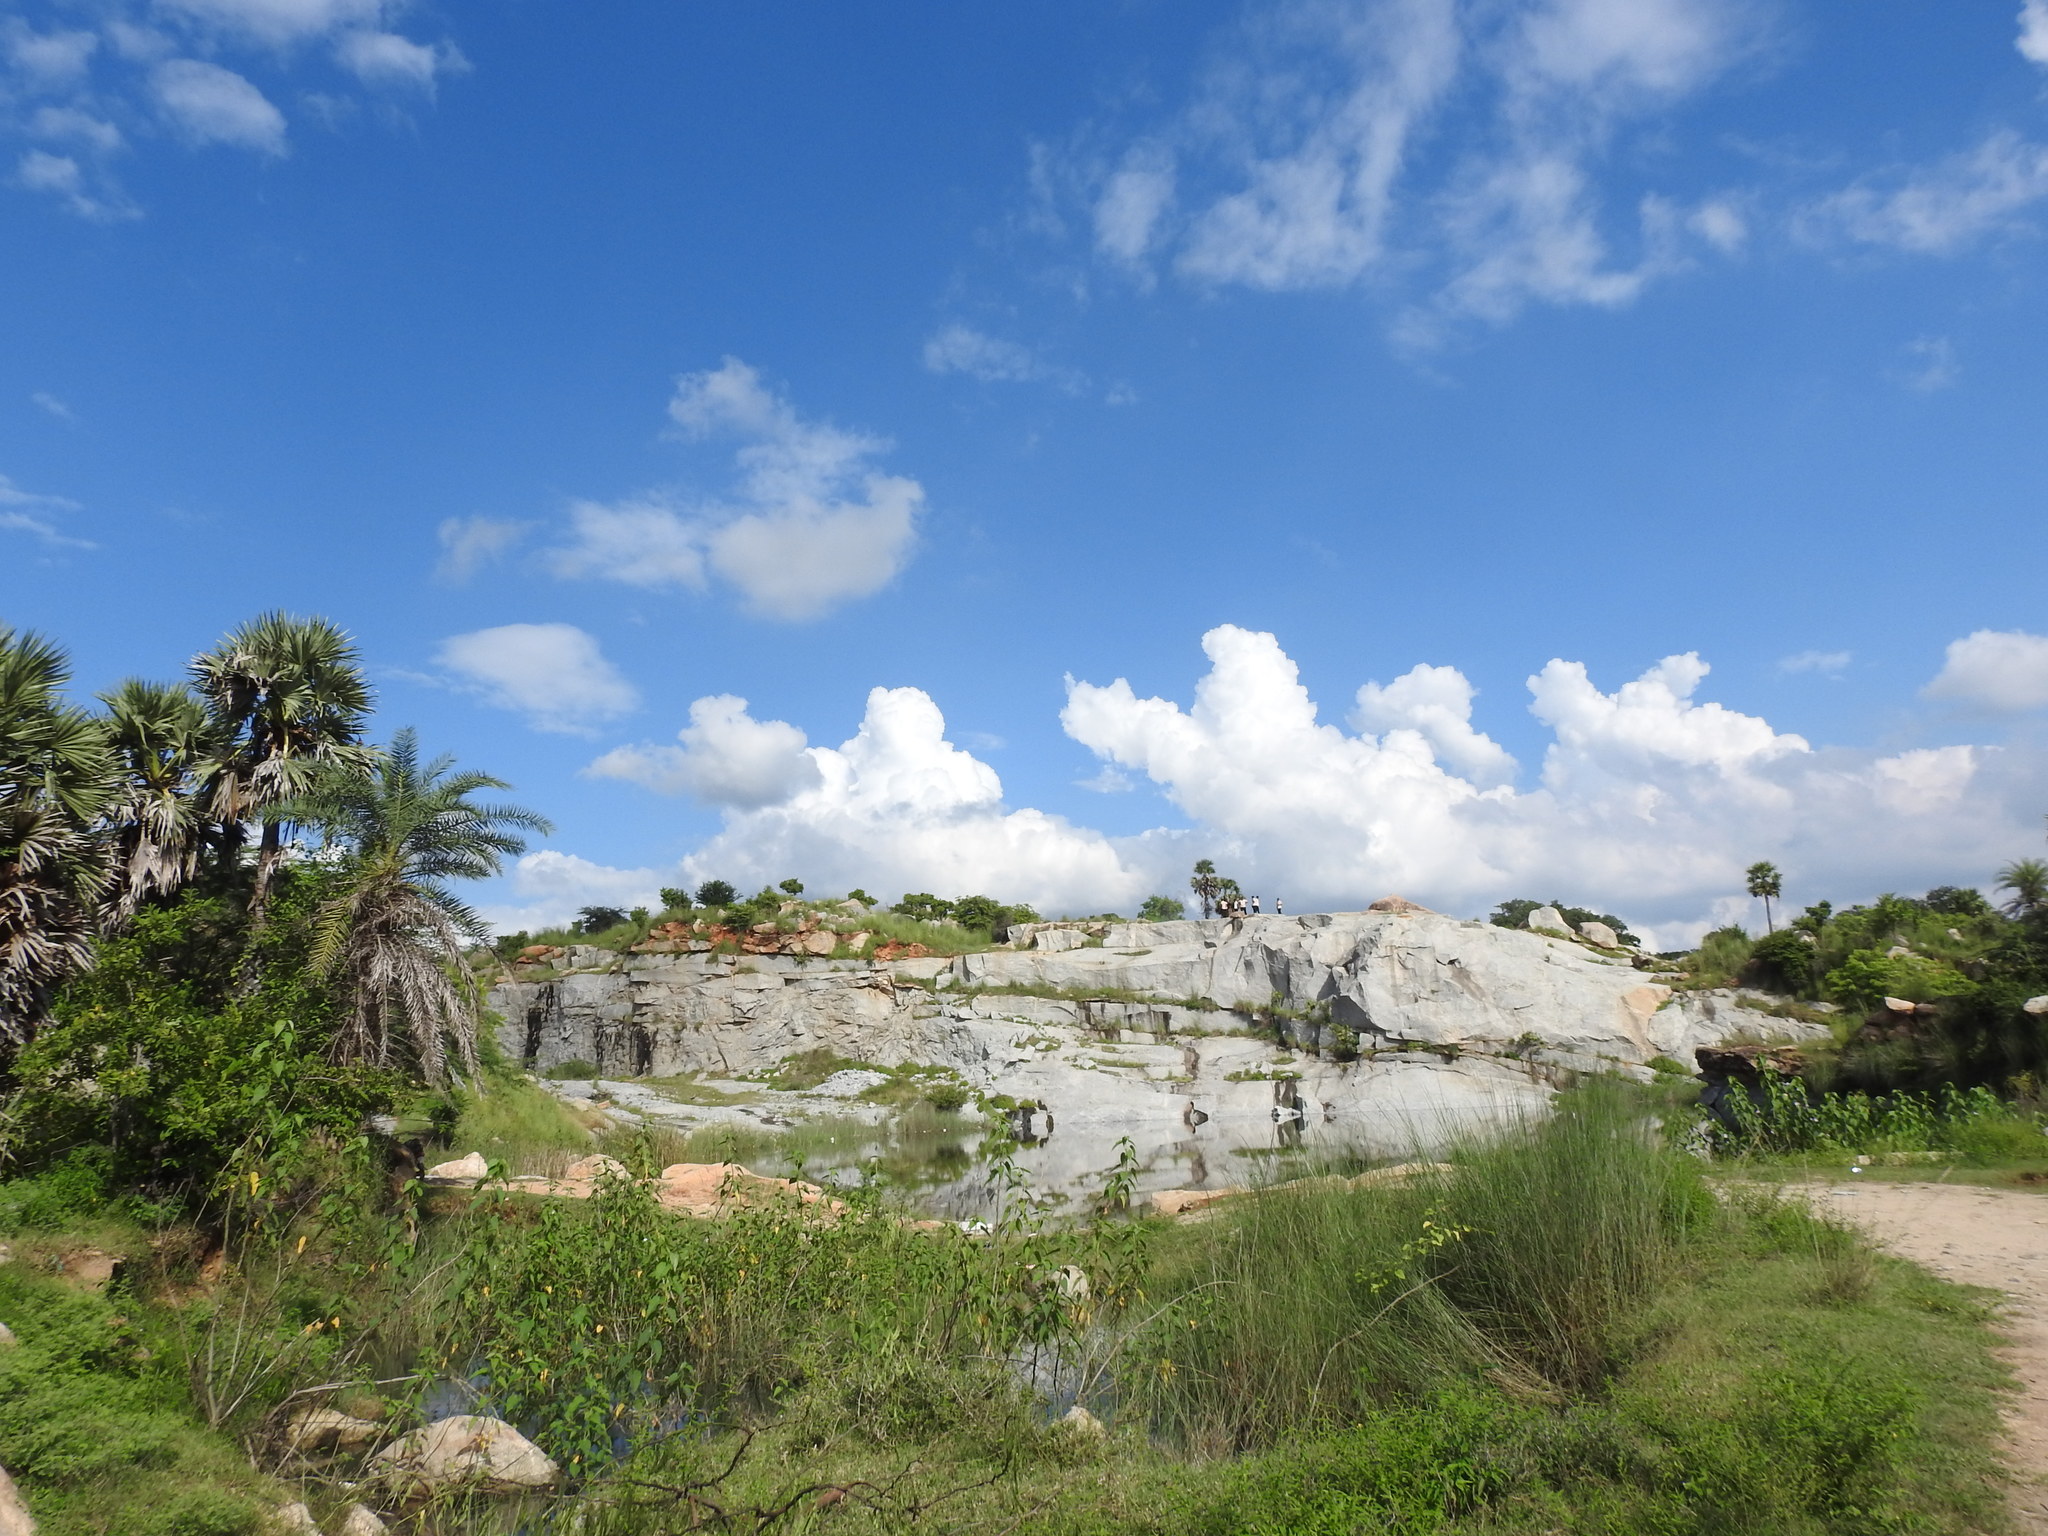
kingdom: Plantae
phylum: Tracheophyta
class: Magnoliopsida
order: Solanales
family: Convolvulaceae
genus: Ipomoea
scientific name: Ipomoea carnea
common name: Morning-glory
